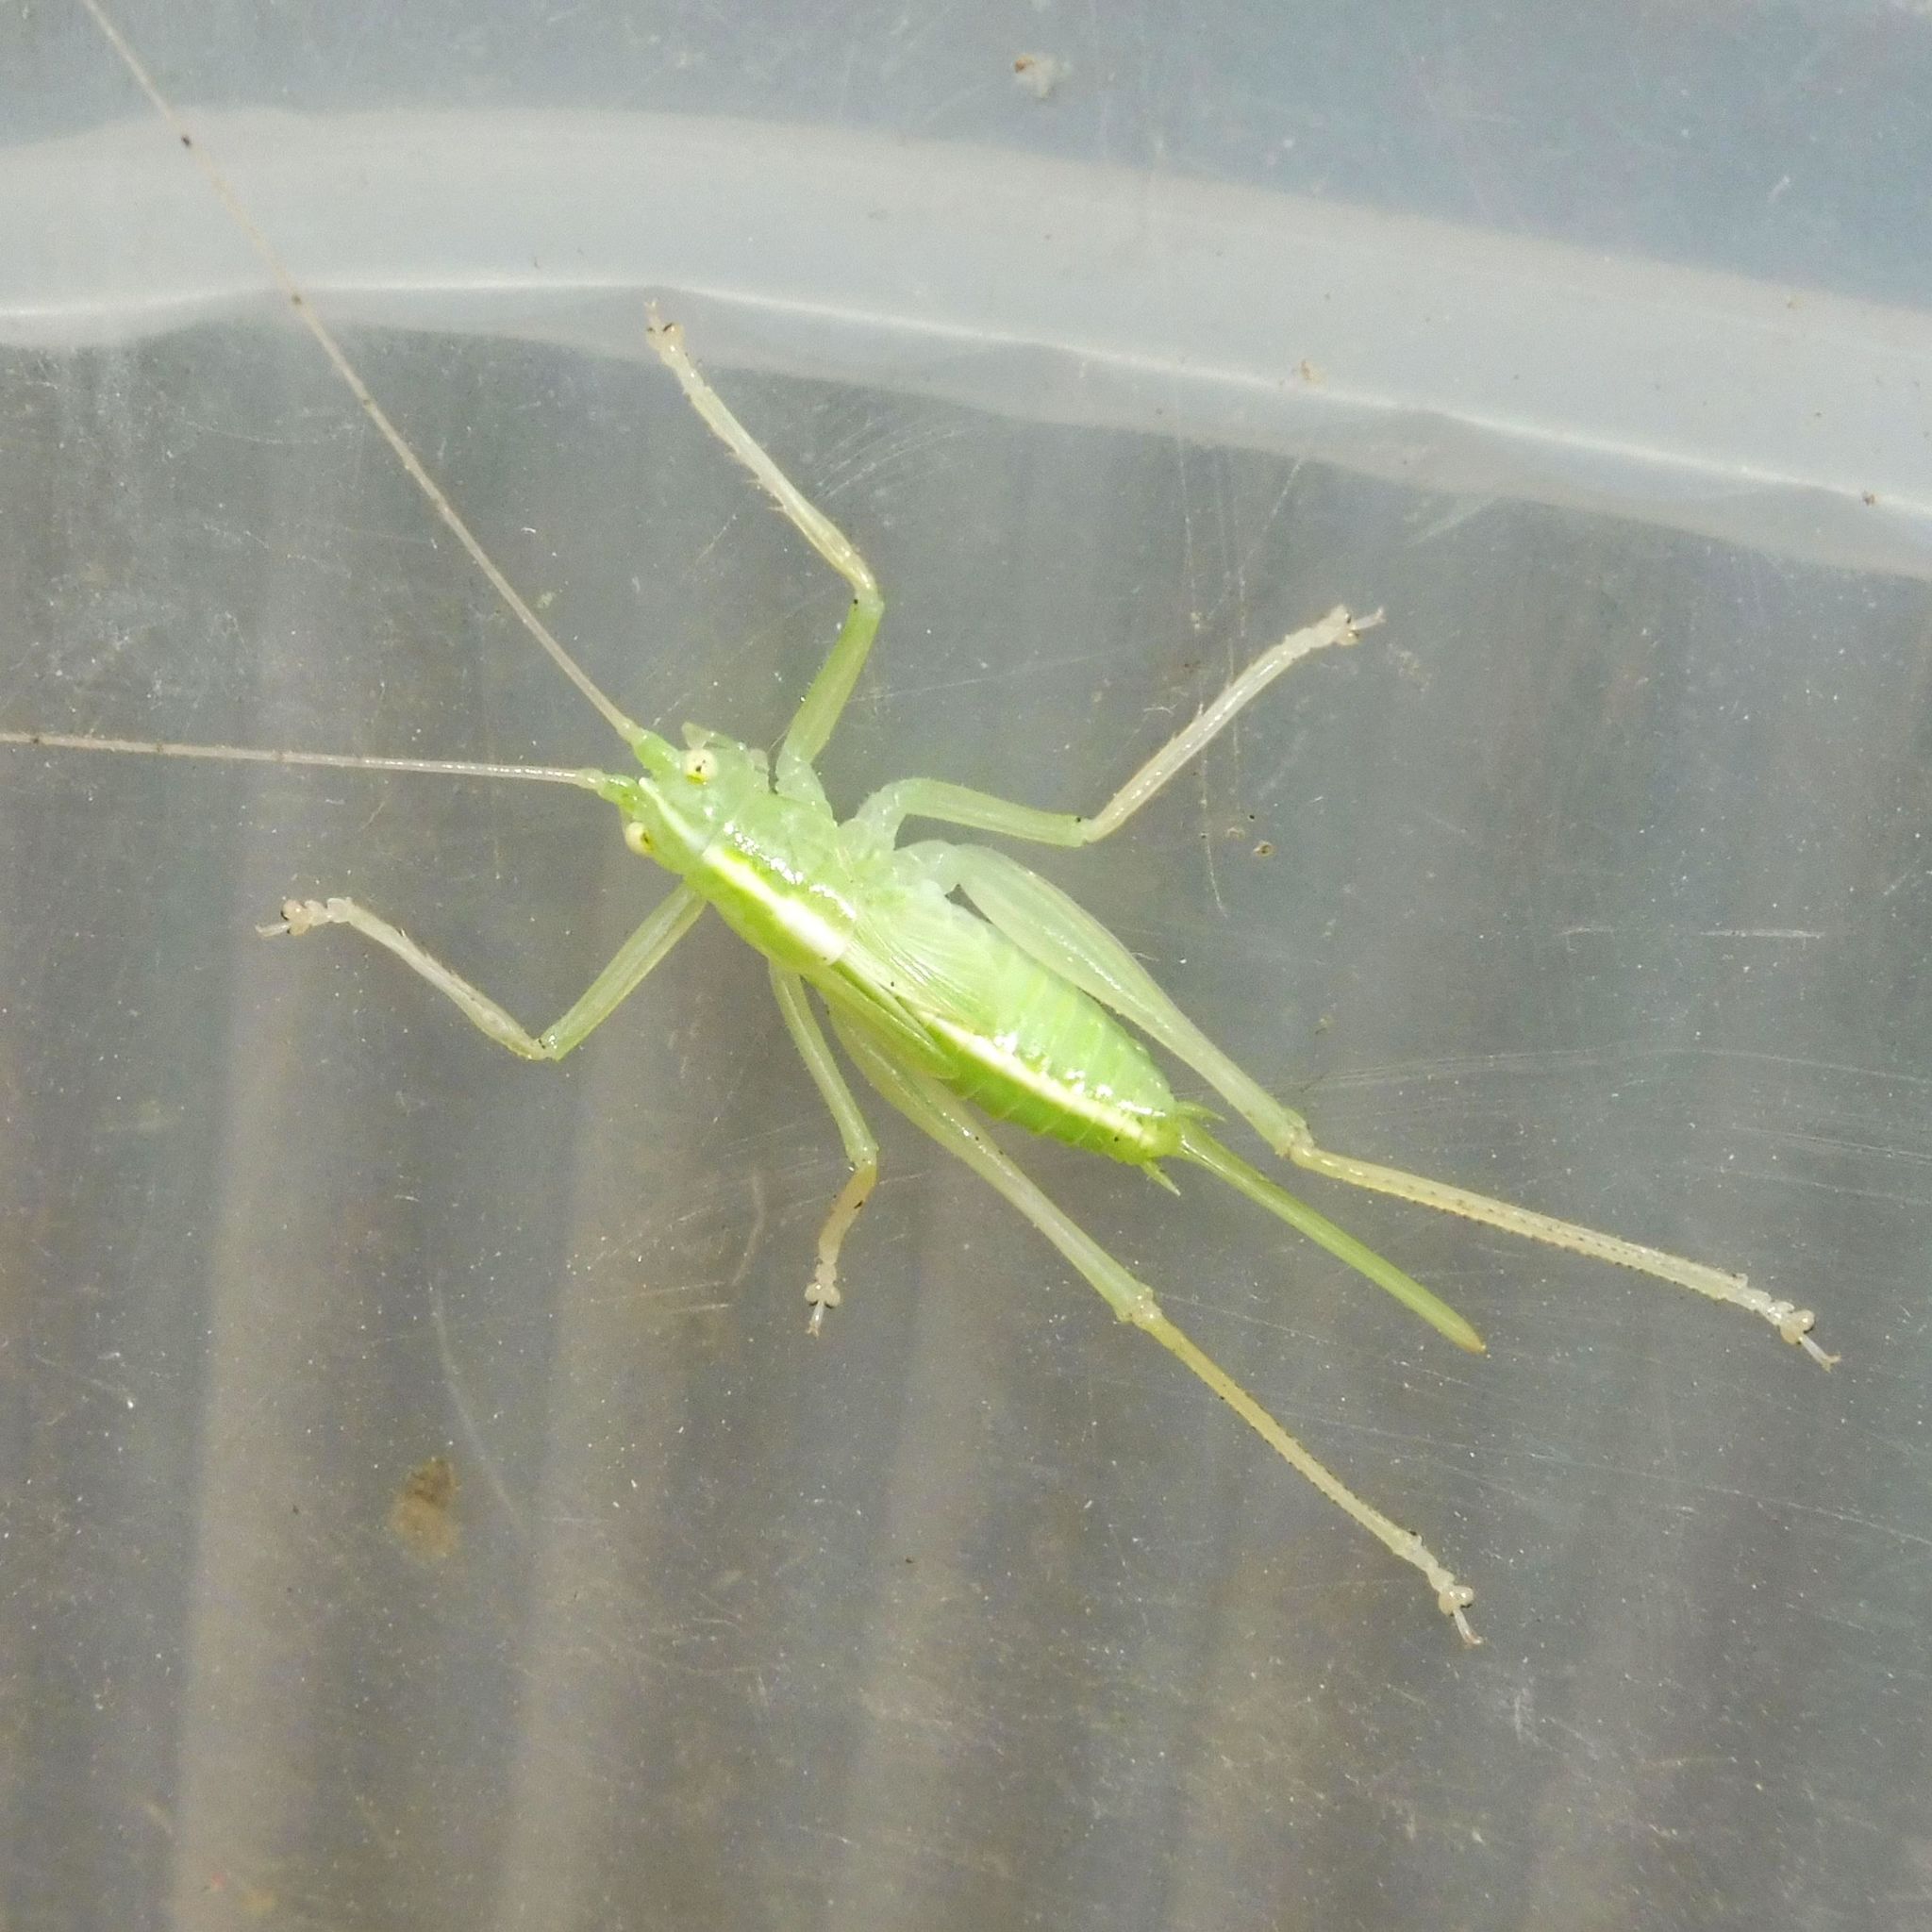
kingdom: Animalia
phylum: Arthropoda
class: Insecta
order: Orthoptera
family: Tettigoniidae
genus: Meconema
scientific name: Meconema thalassinum
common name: Oak bush-cricket
